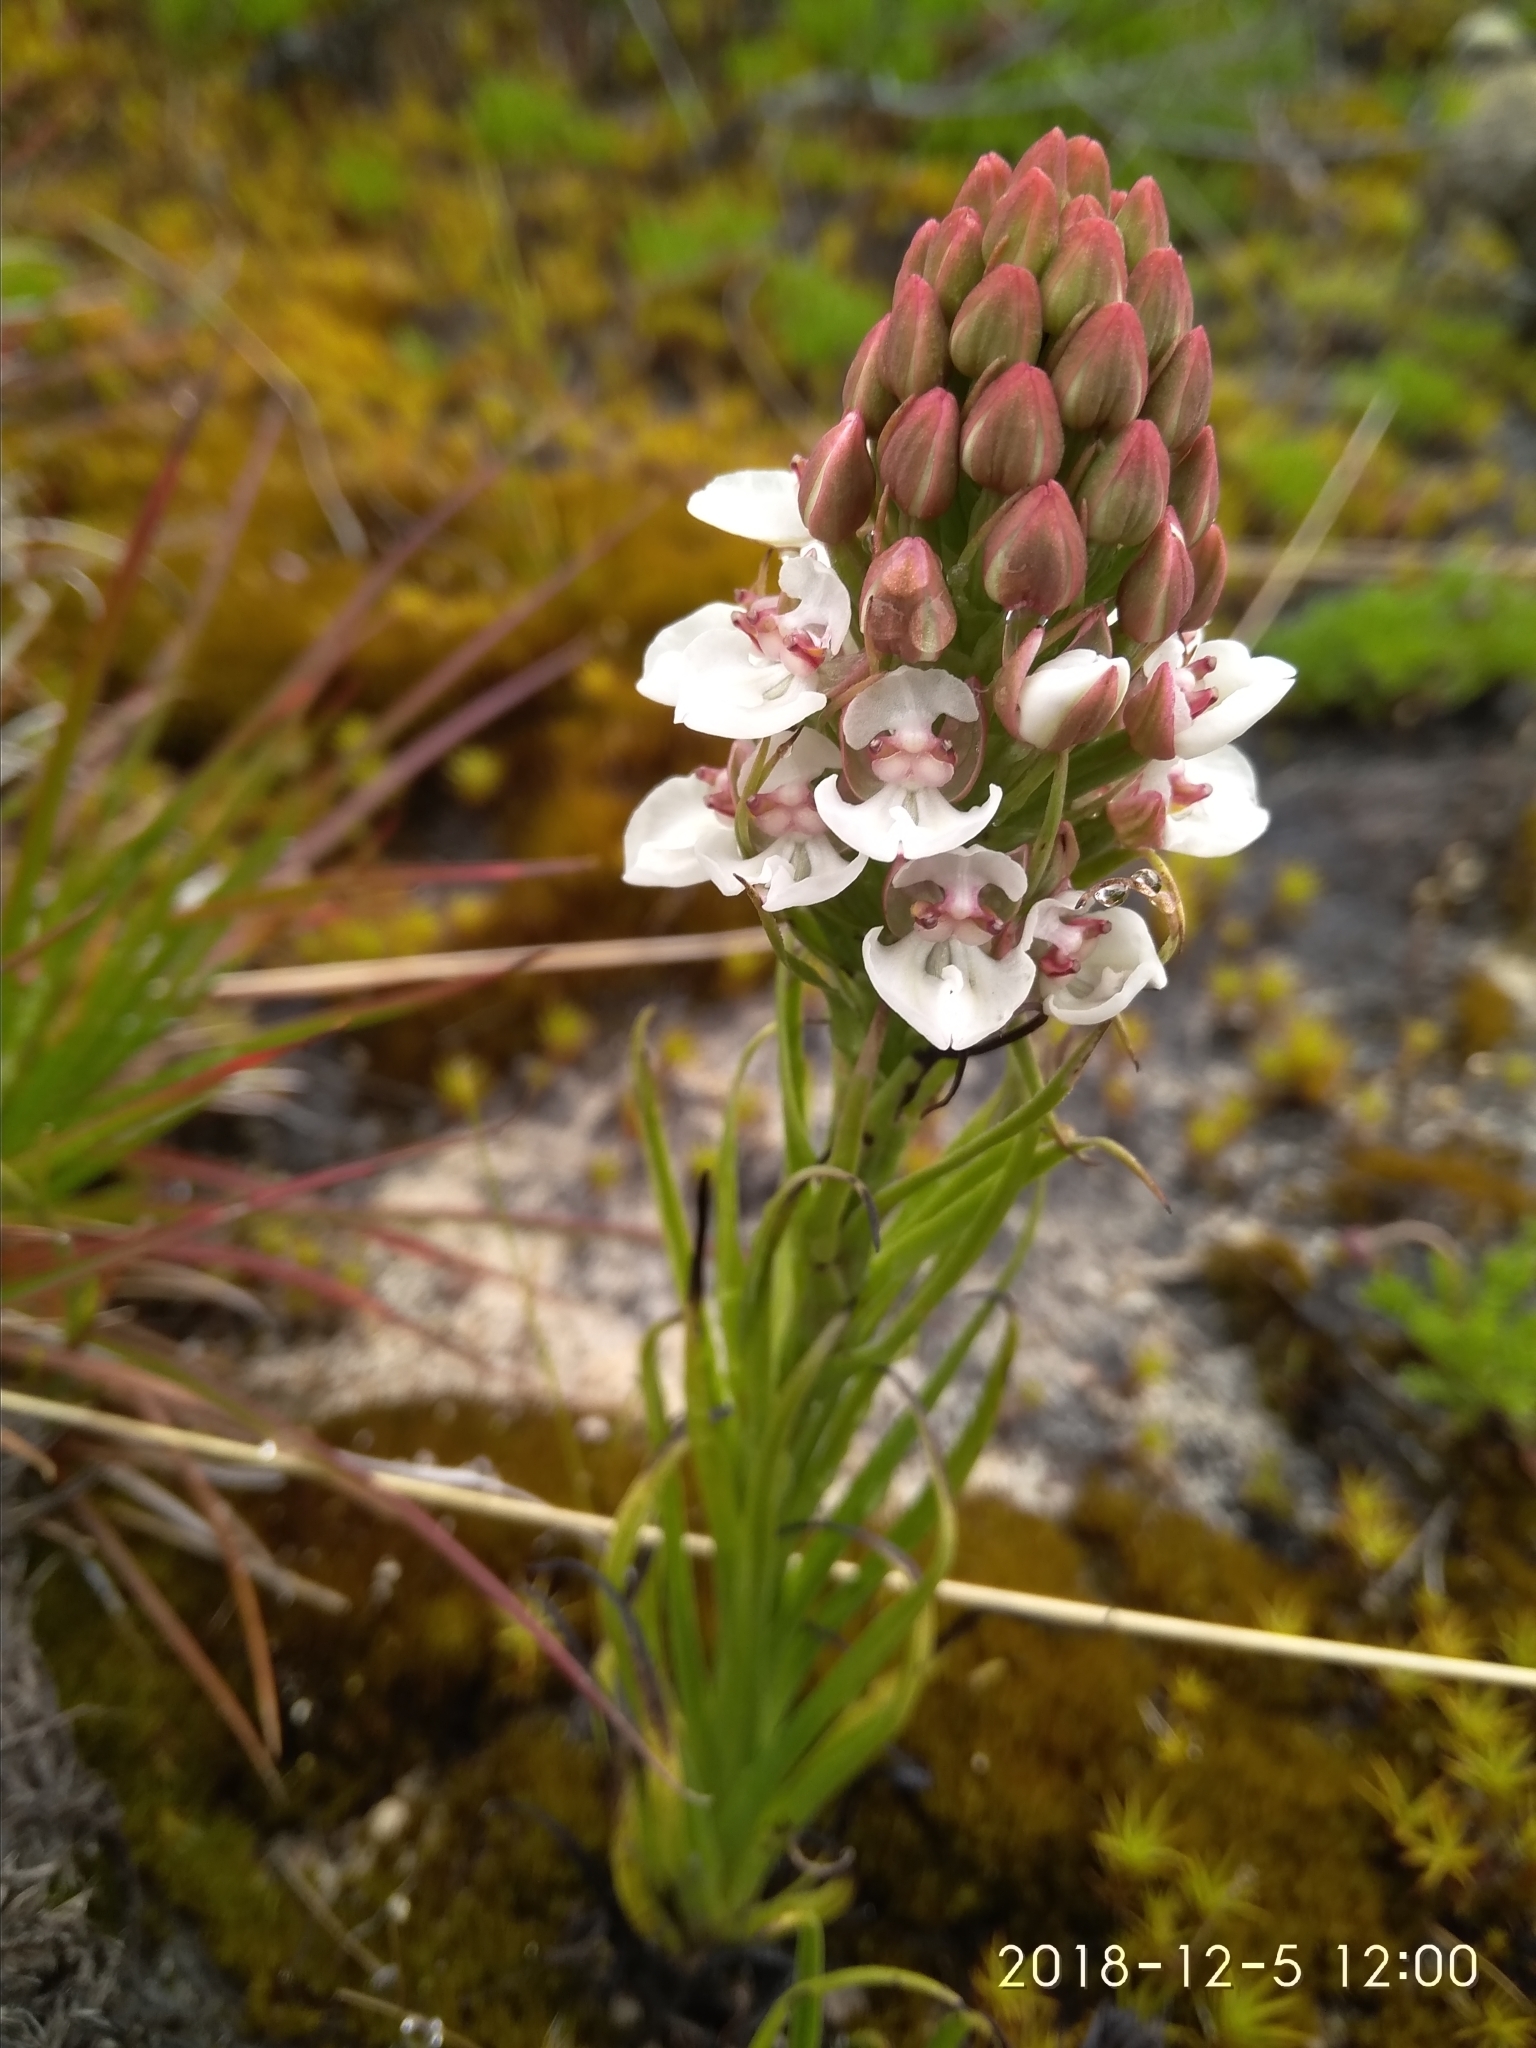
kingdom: Plantae
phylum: Tracheophyta
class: Liliopsida
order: Asparagales
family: Orchidaceae
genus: Ceratandra
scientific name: Ceratandra globosa
